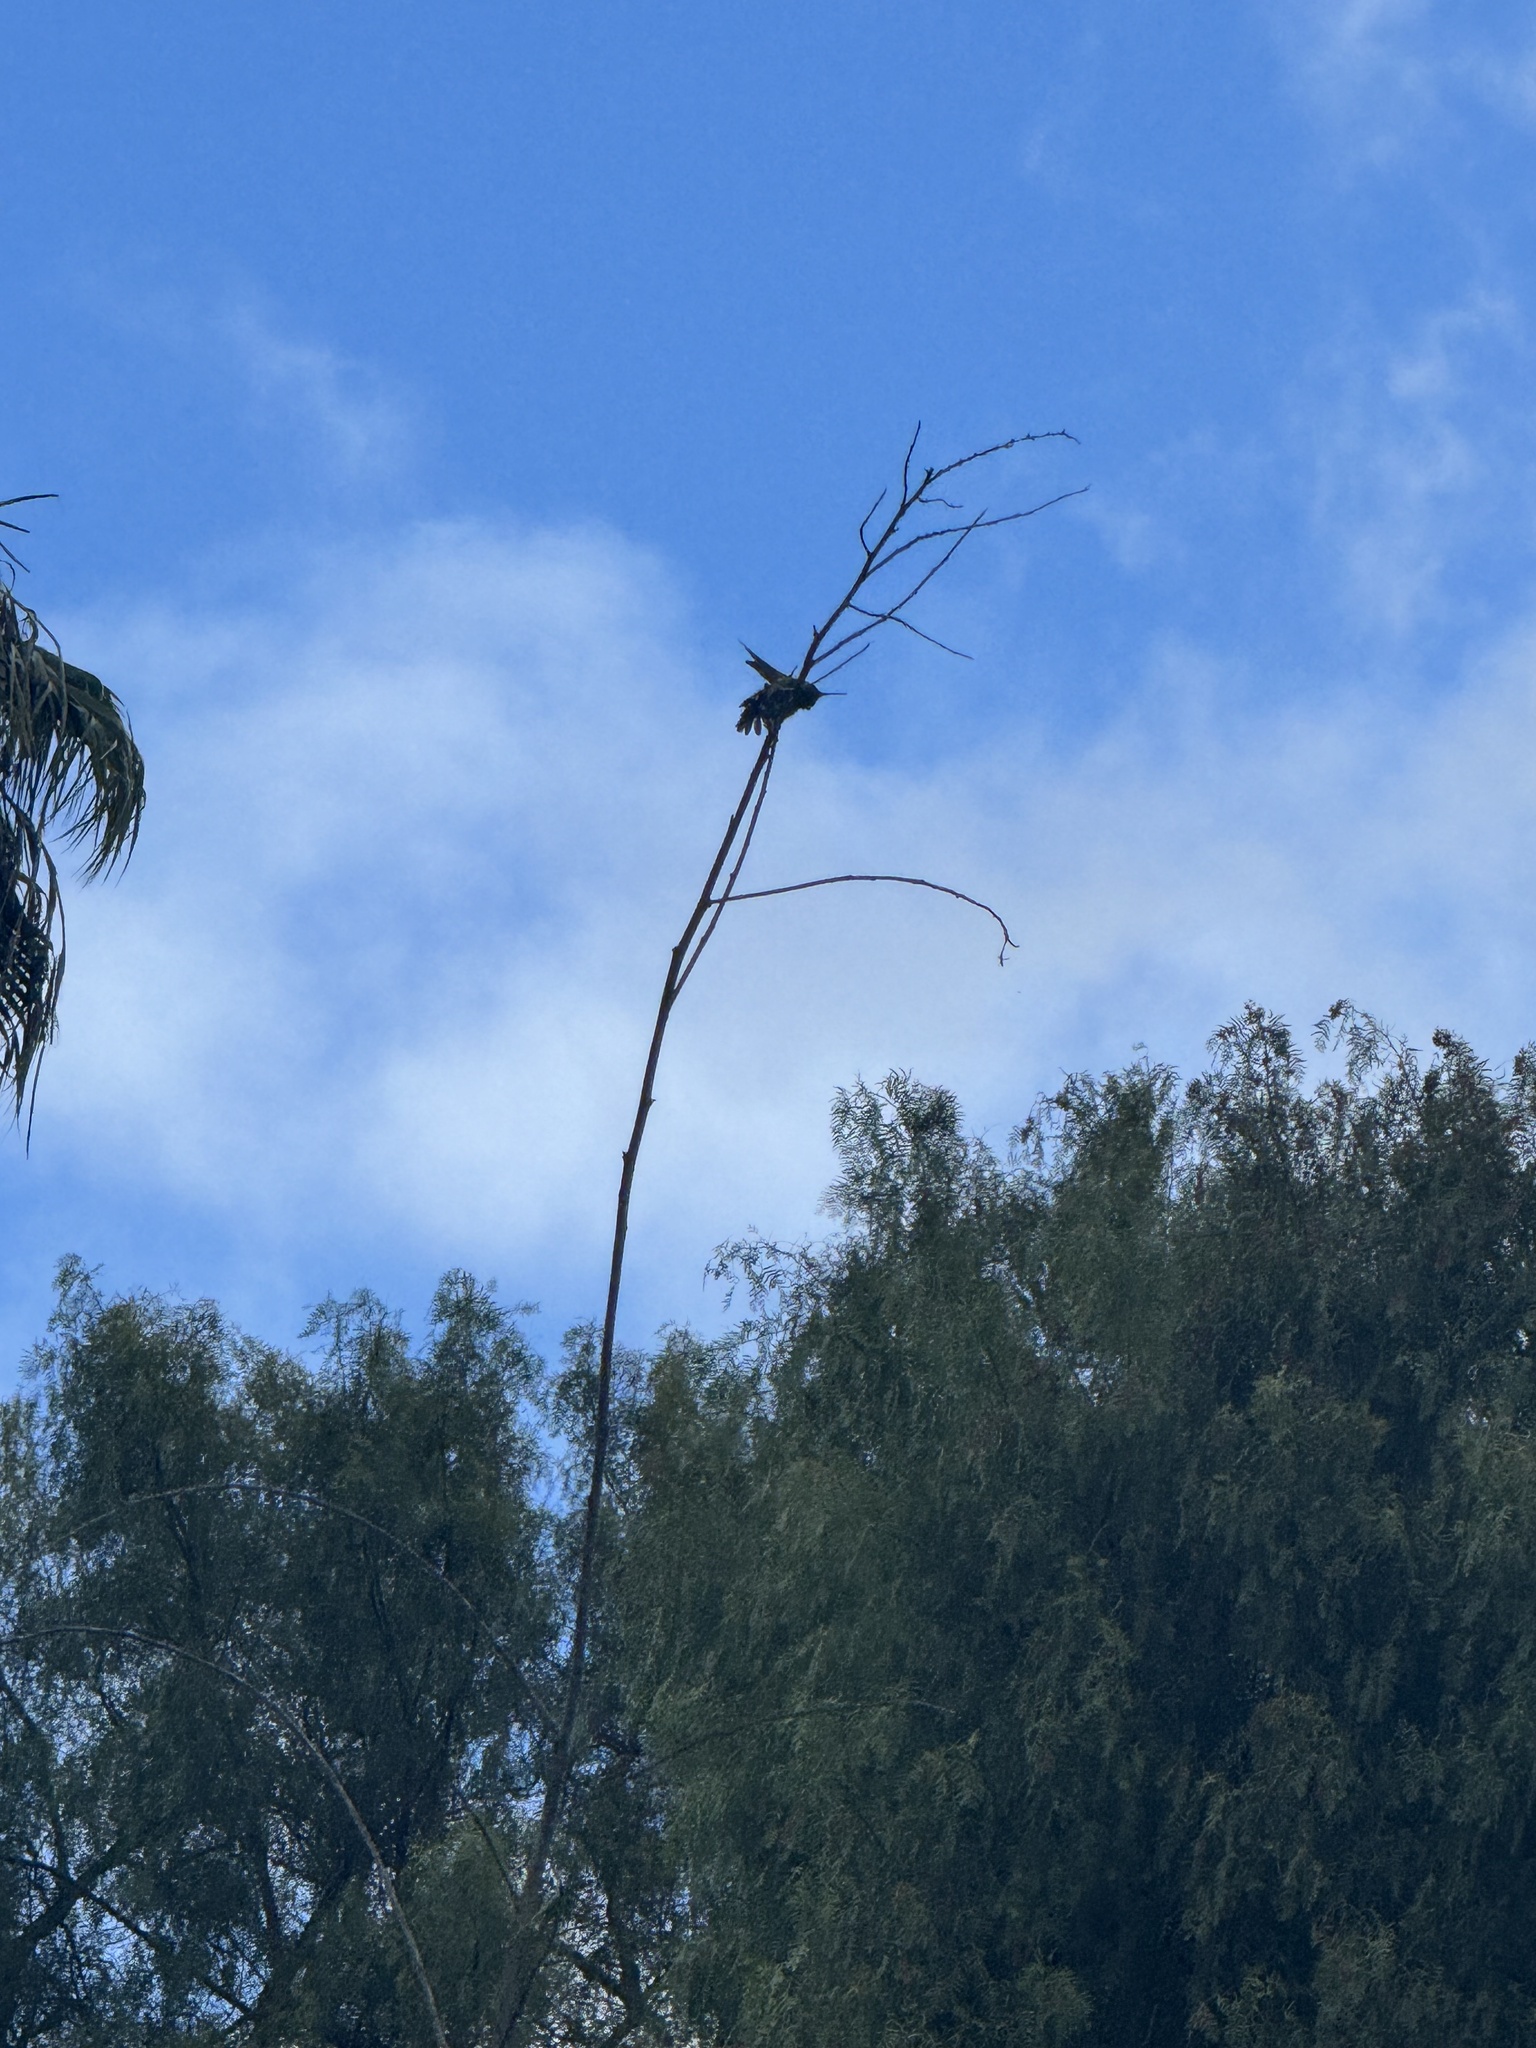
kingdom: Animalia
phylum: Chordata
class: Aves
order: Apodiformes
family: Trochilidae
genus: Calypte
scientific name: Calypte anna
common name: Anna's hummingbird
